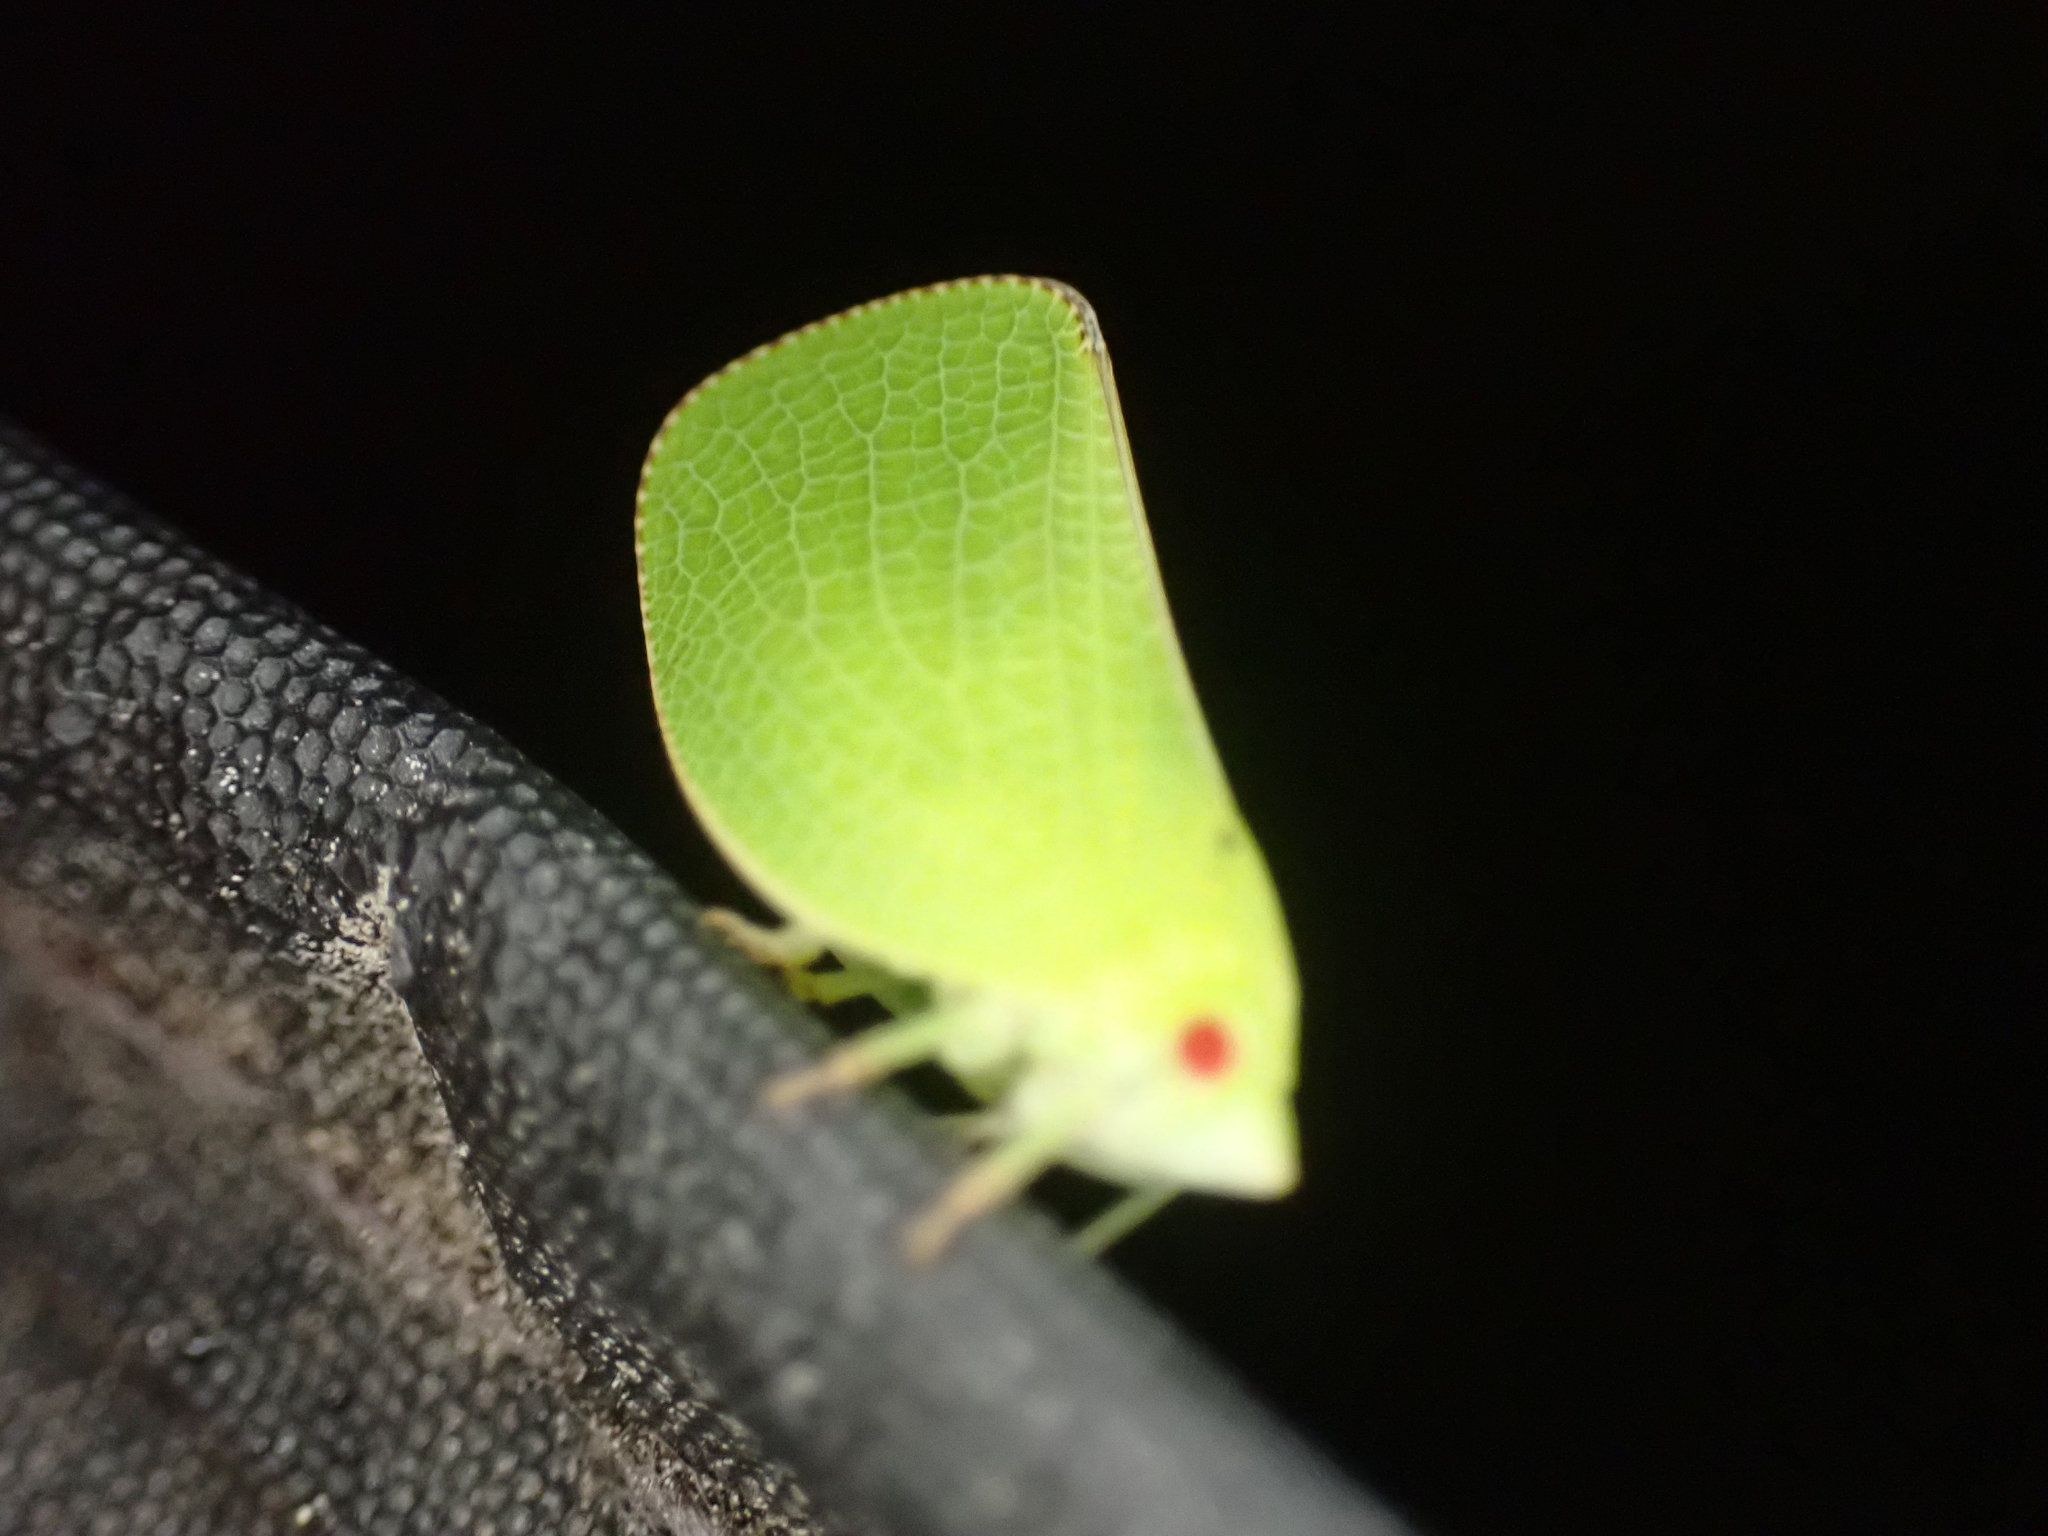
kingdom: Animalia
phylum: Arthropoda
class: Insecta
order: Hemiptera
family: Acanaloniidae
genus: Acanalonia
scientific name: Acanalonia conica
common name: Green cone-headed planthopper
